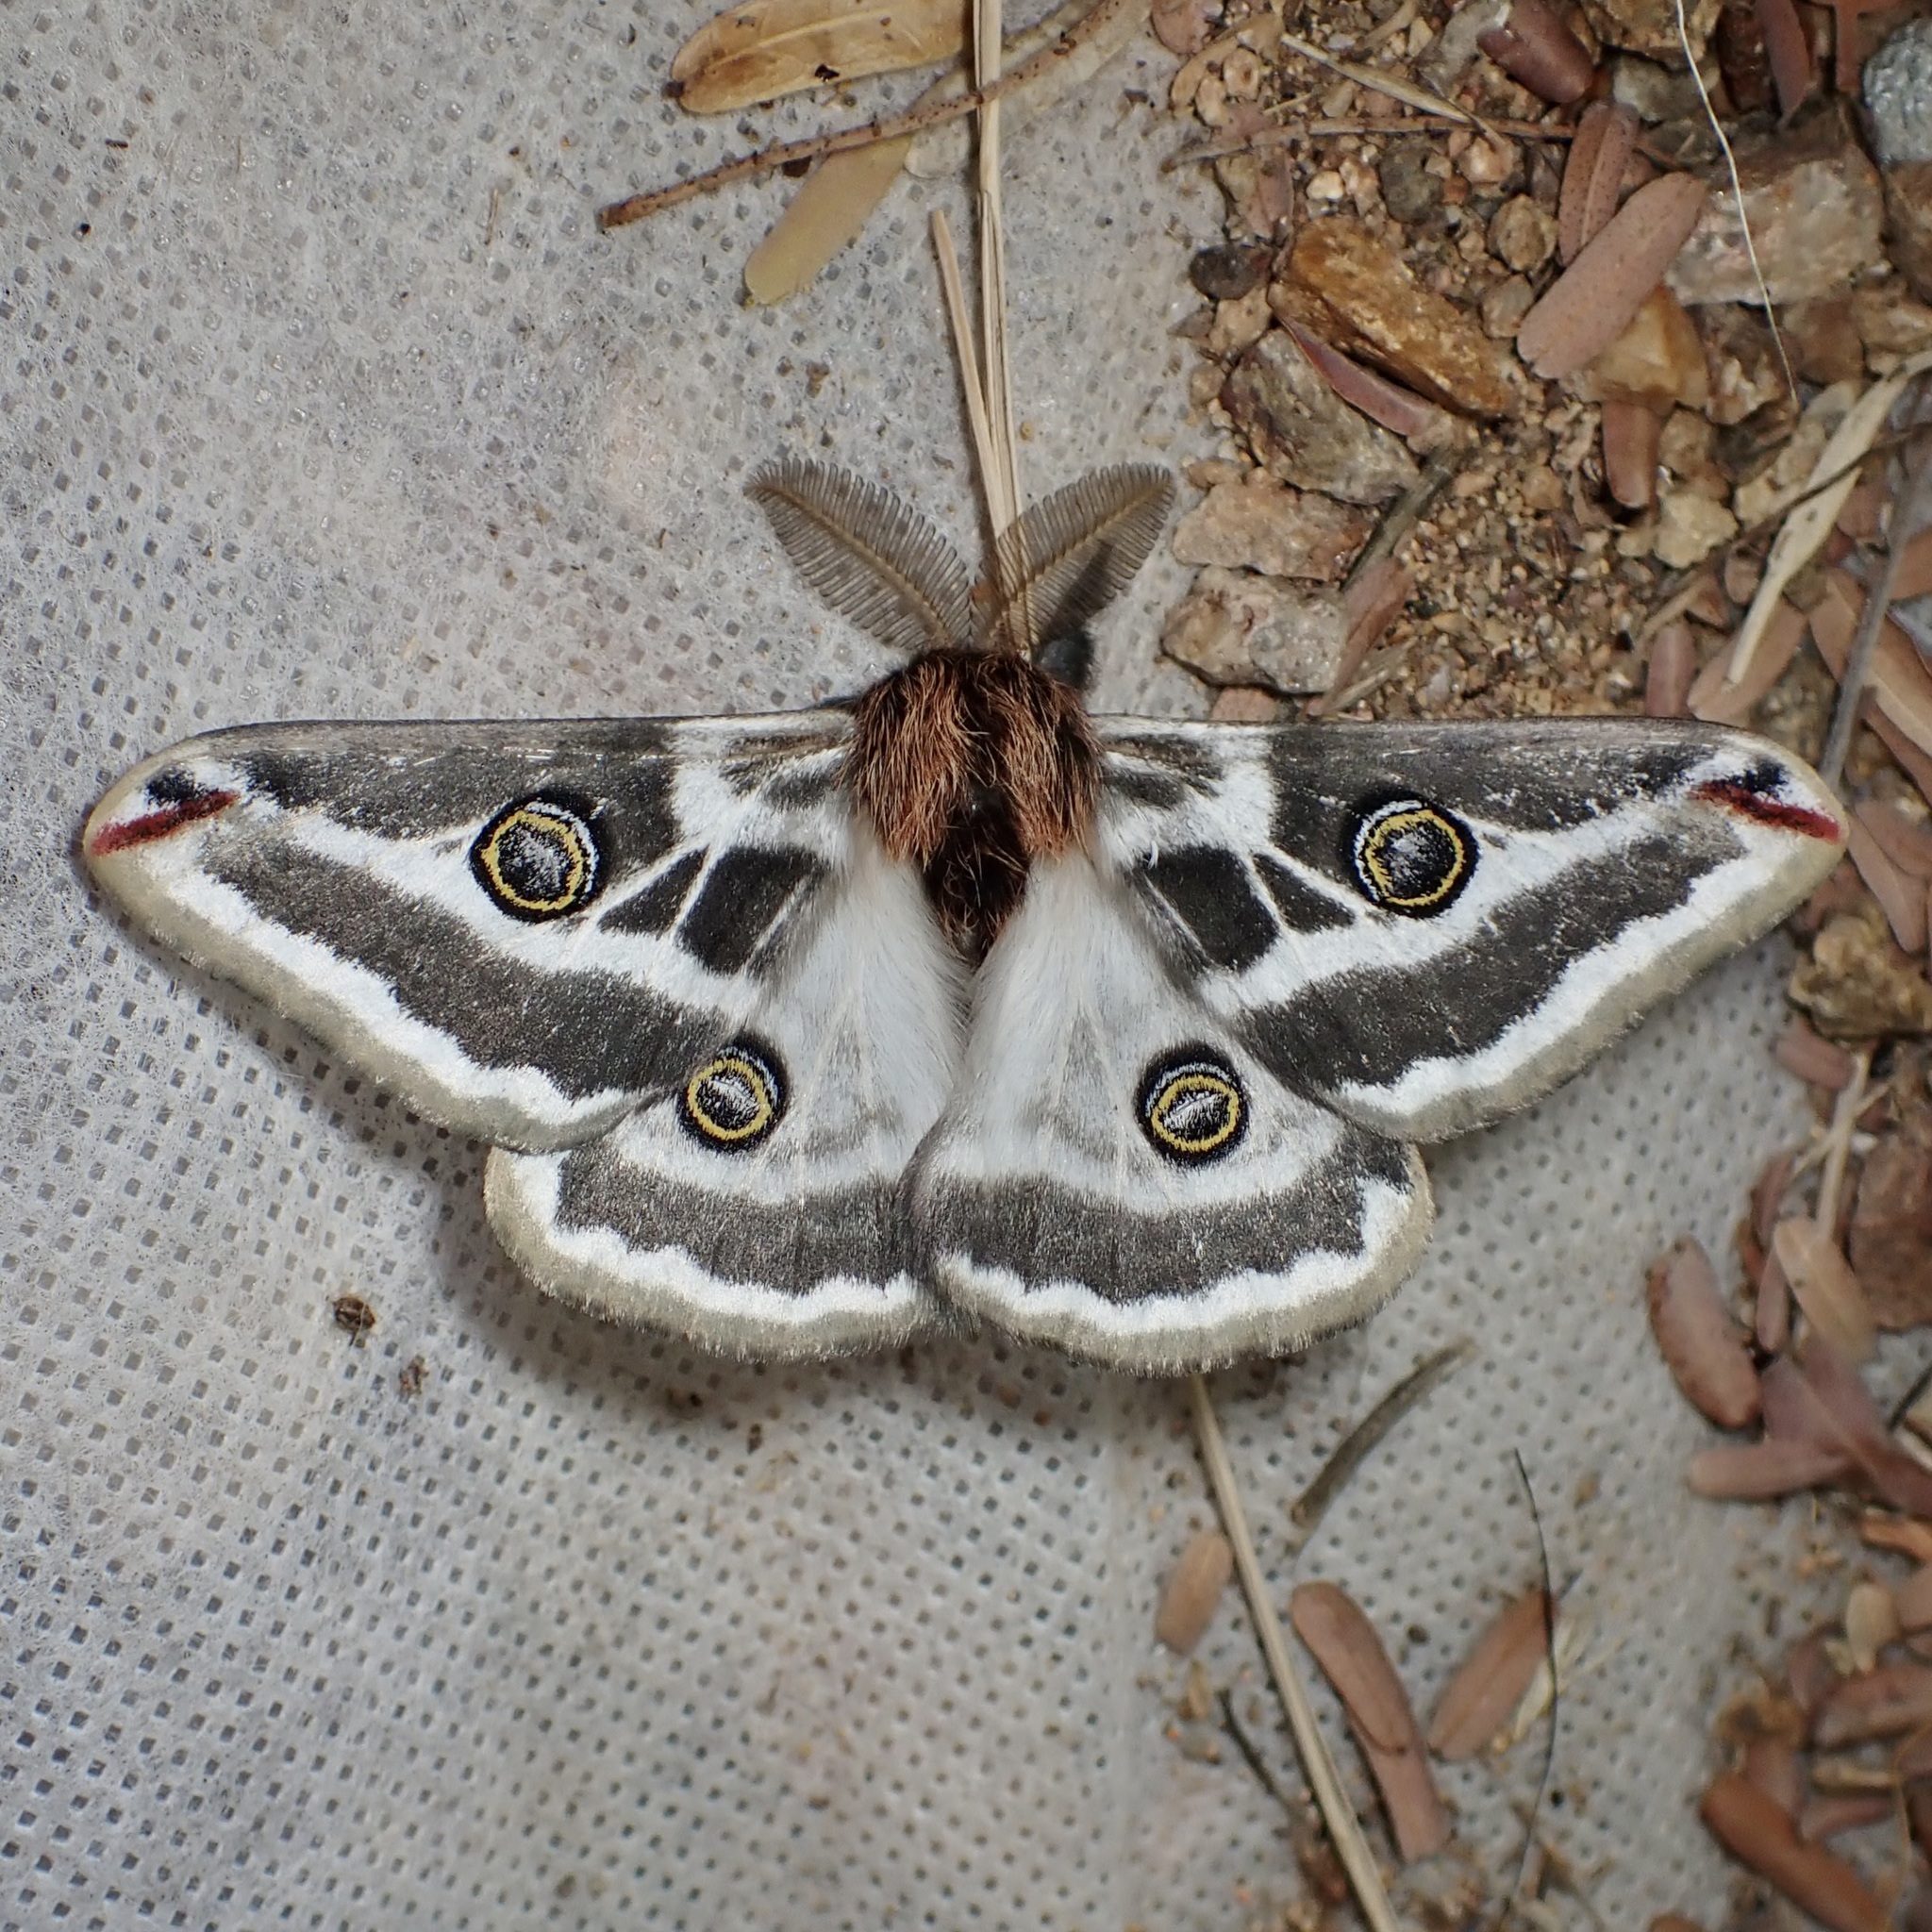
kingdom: Animalia
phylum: Arthropoda
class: Insecta
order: Lepidoptera
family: Saturniidae
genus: Saturnia
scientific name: Saturnia anona
